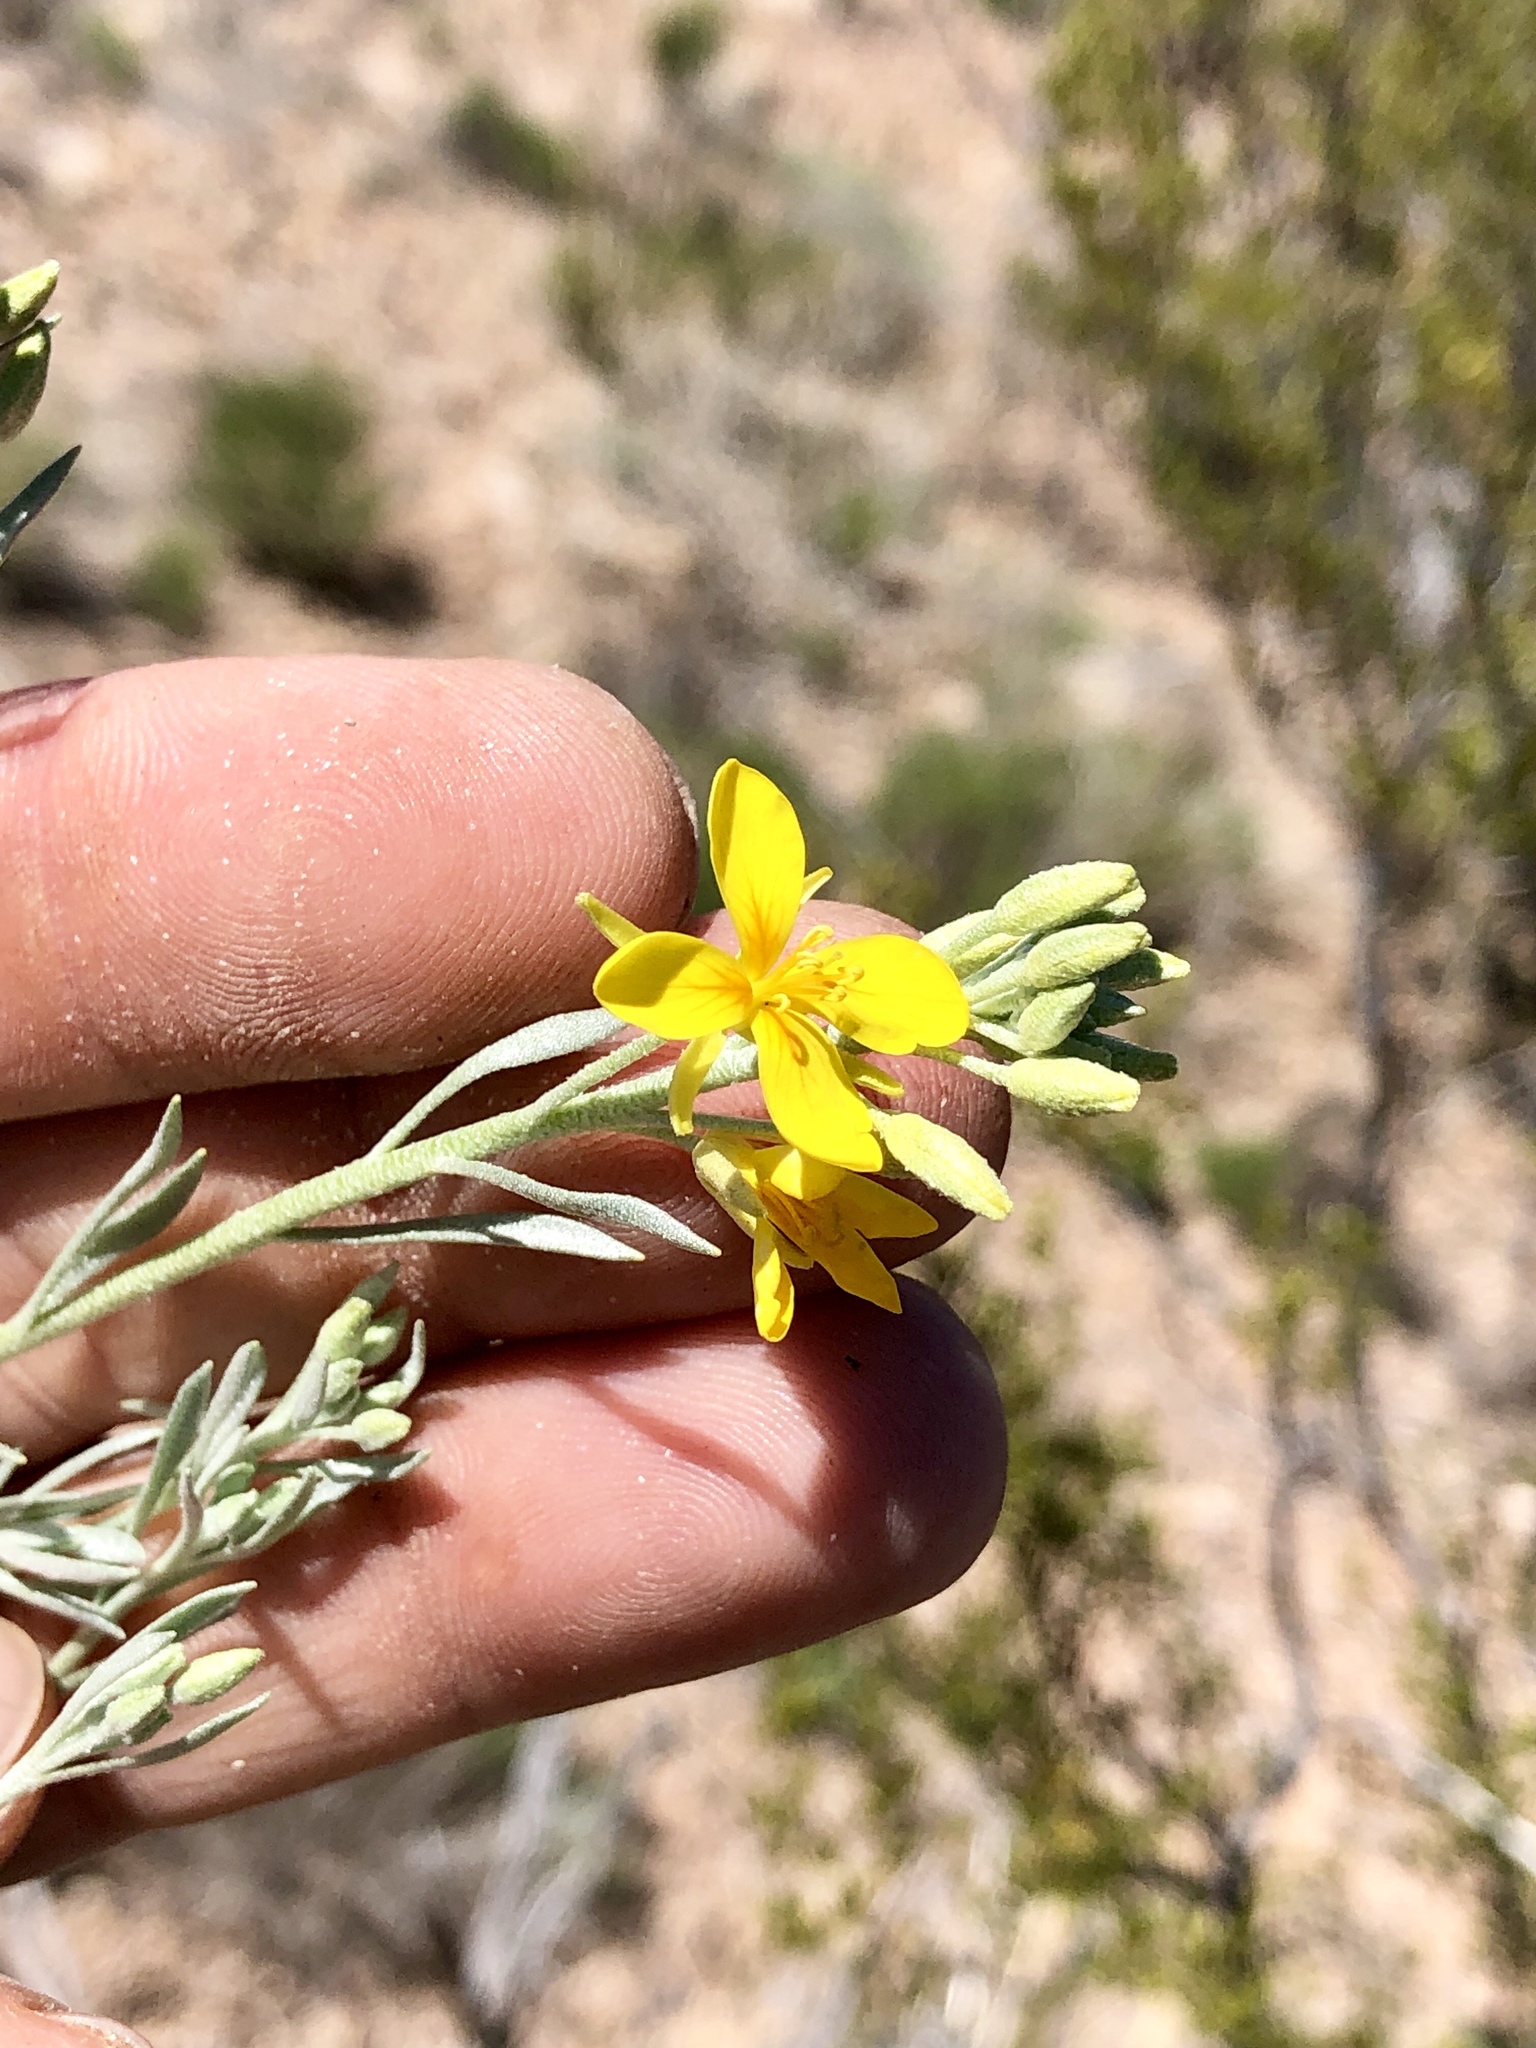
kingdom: Plantae
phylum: Tracheophyta
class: Magnoliopsida
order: Brassicales
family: Brassicaceae
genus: Physaria
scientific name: Physaria fendleri
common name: Fendler's bladderpod
